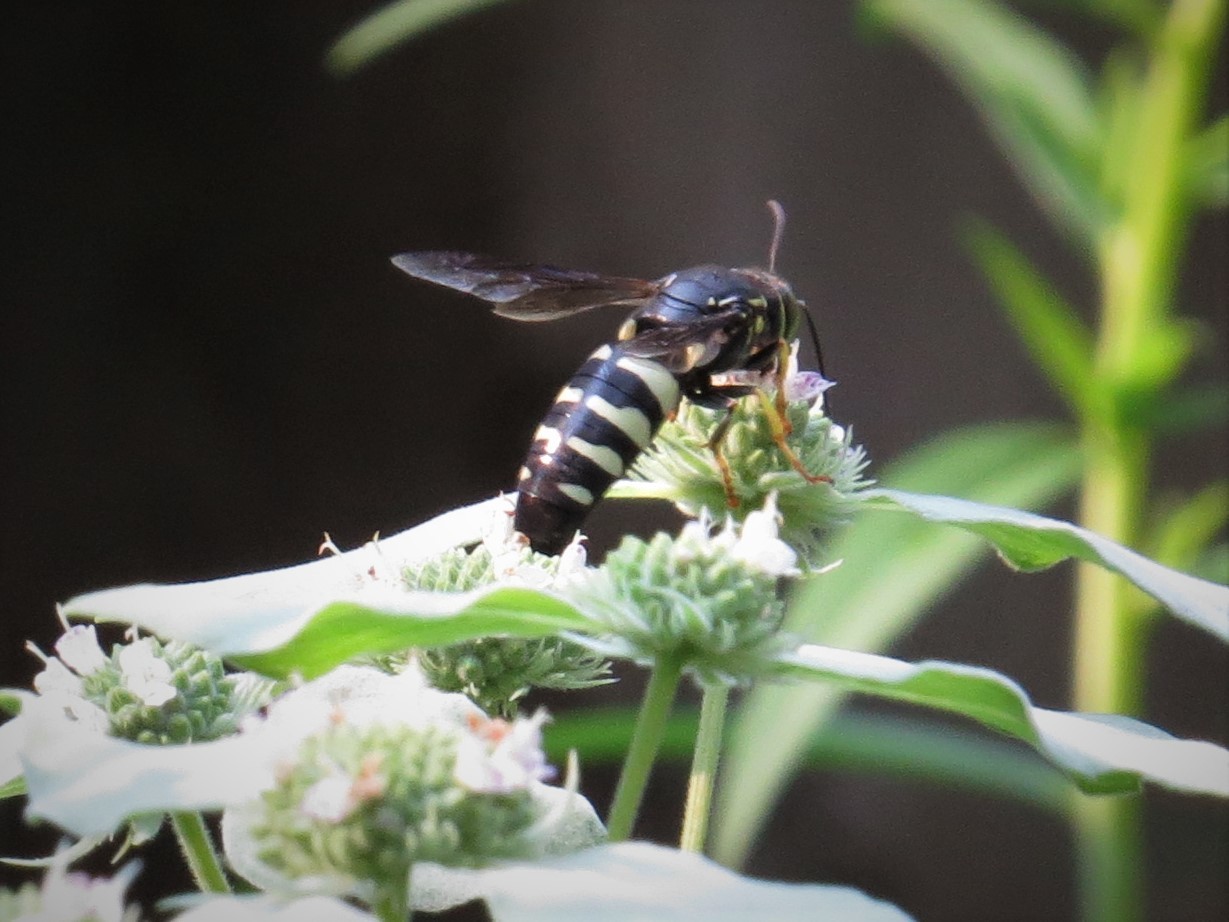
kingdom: Animalia
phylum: Arthropoda
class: Insecta
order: Hymenoptera
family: Crabronidae
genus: Bicyrtes
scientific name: Bicyrtes quadrifasciatus
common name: Four-banded stink bug hunter wasp
